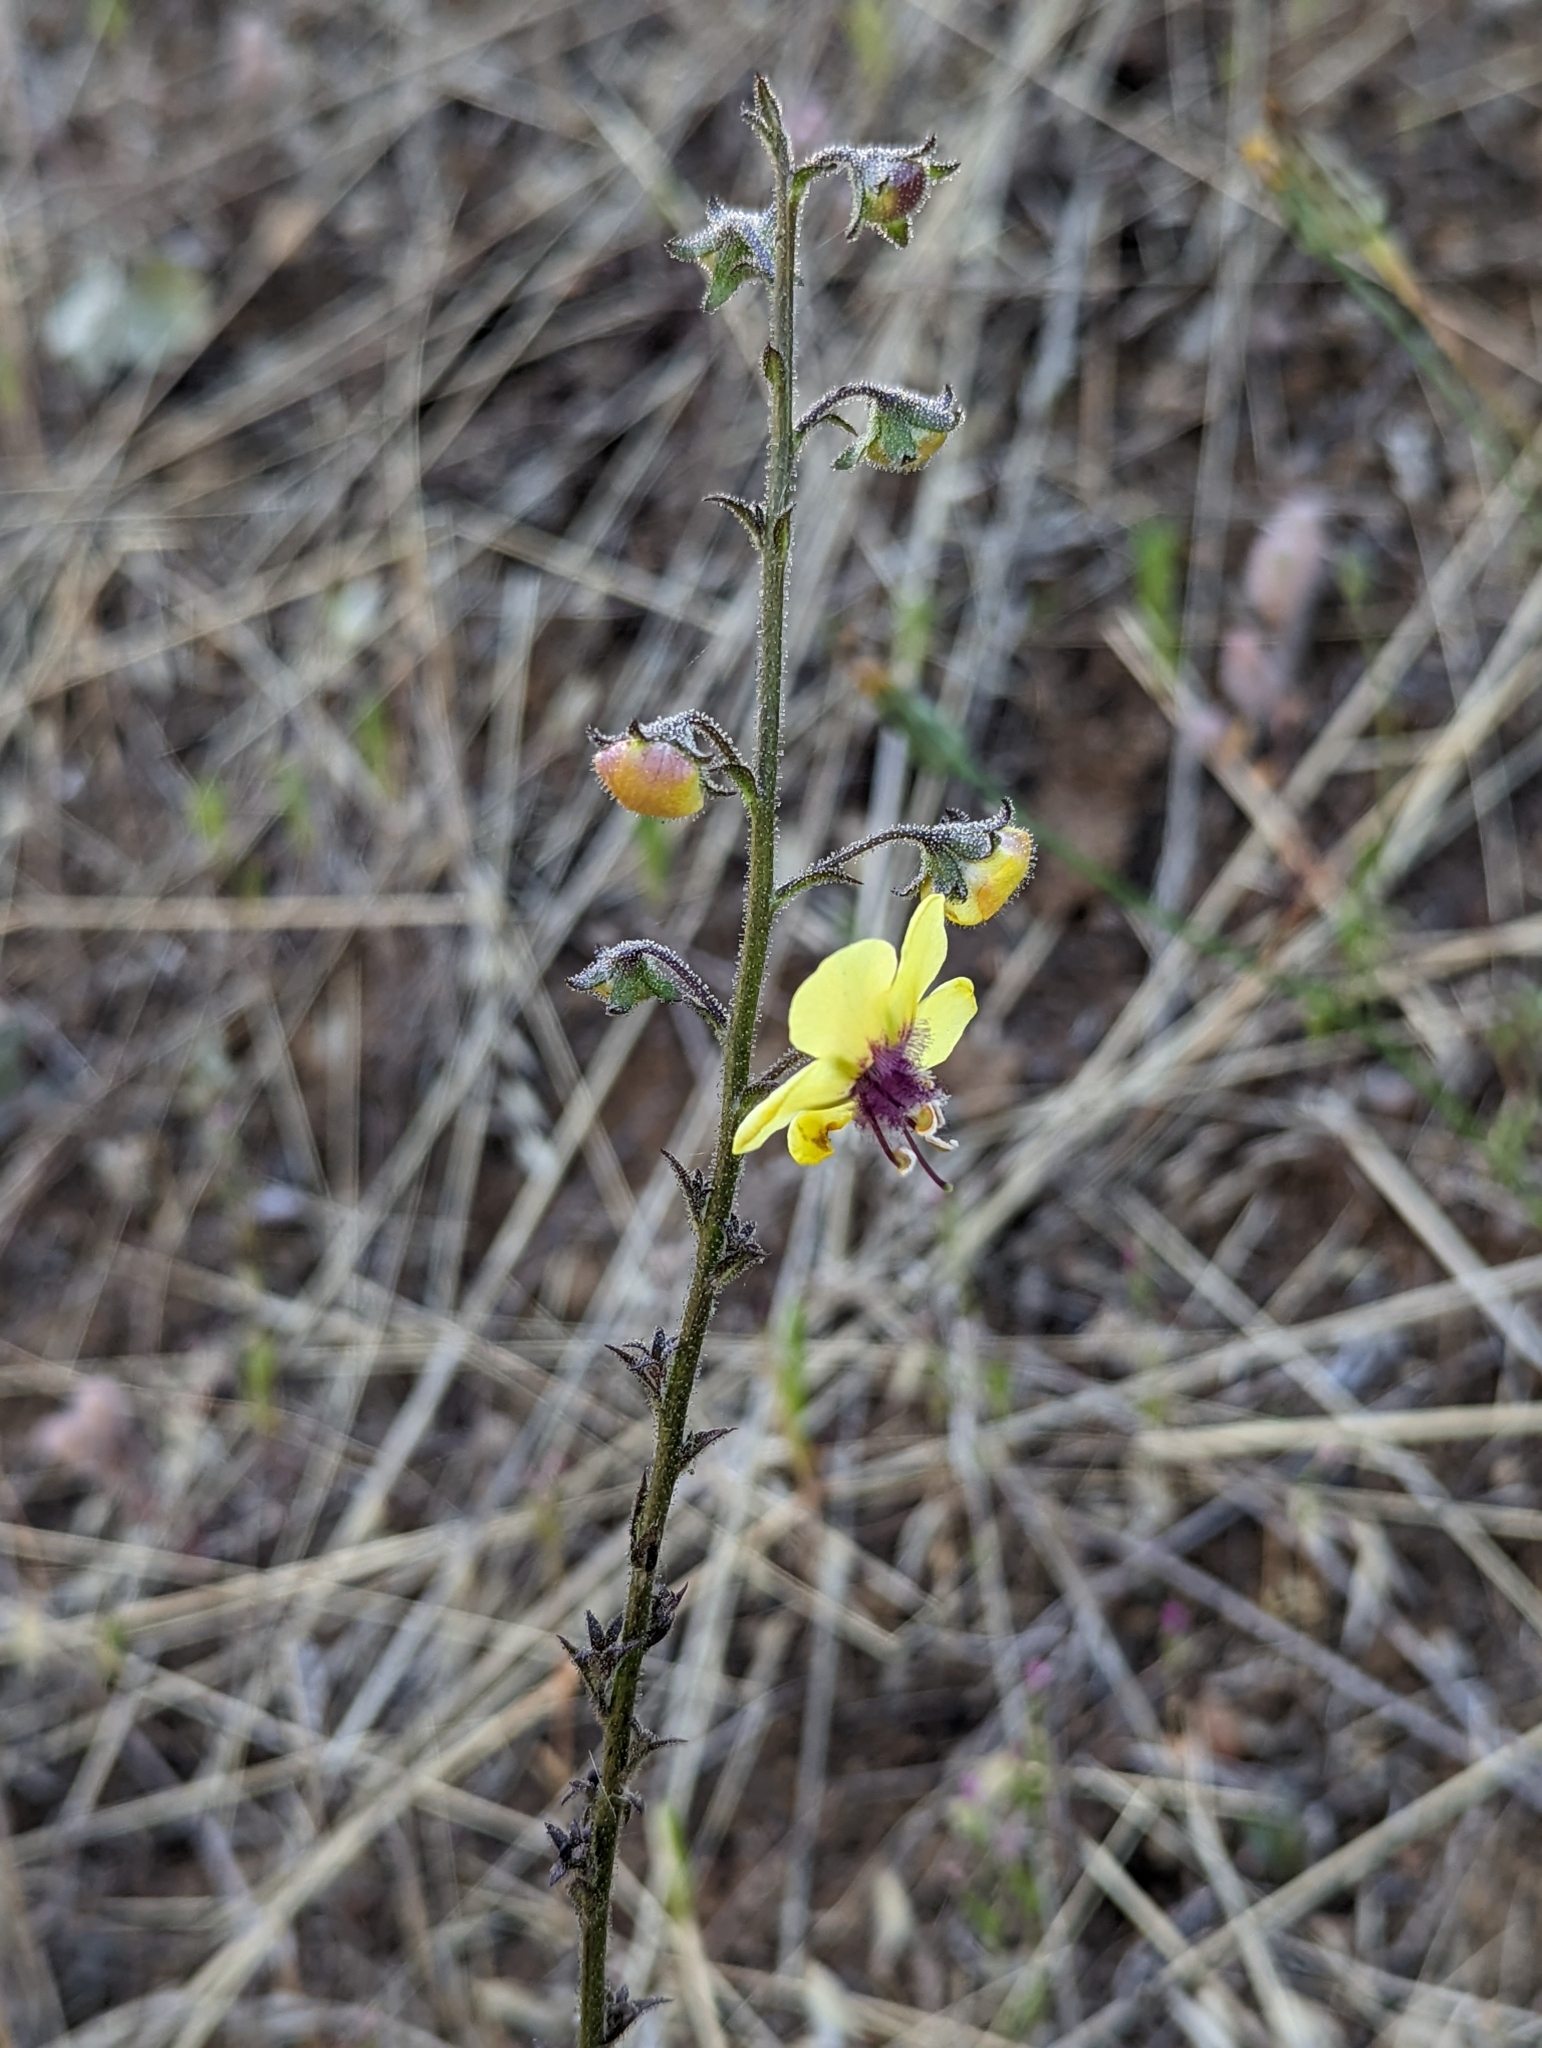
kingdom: Plantae
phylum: Tracheophyta
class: Magnoliopsida
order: Lamiales
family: Scrophulariaceae
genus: Verbascum
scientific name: Verbascum blattaria
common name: Moth mullein
